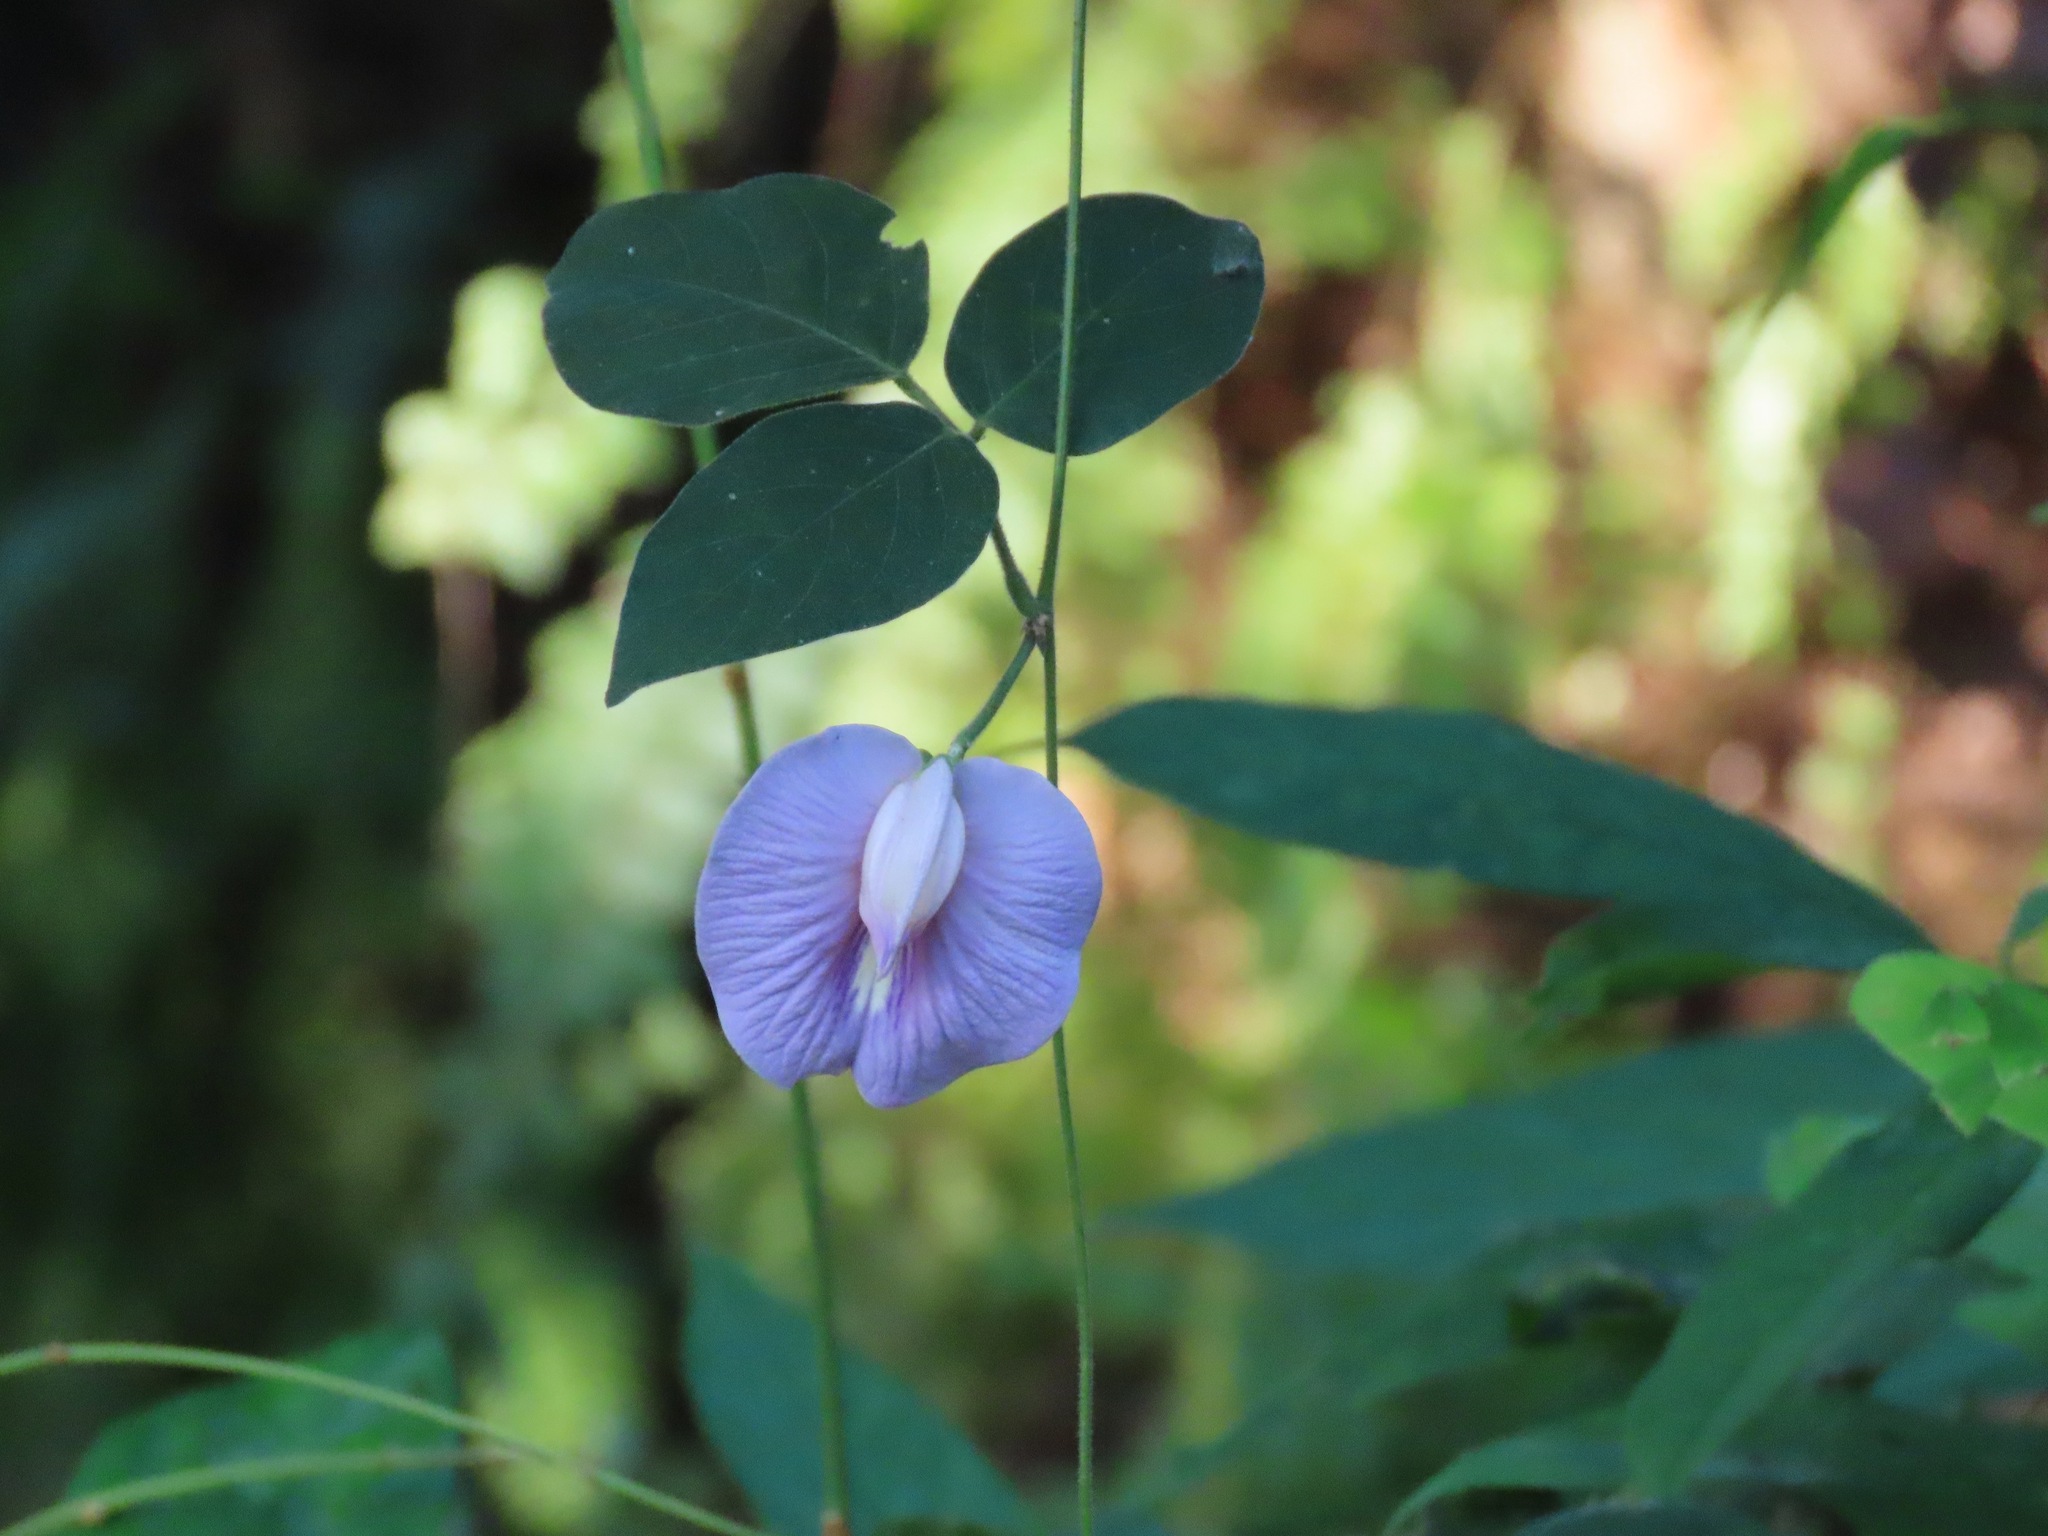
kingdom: Plantae
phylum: Tracheophyta
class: Magnoliopsida
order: Fabales
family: Fabaceae
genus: Centrosema
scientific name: Centrosema pubescens
